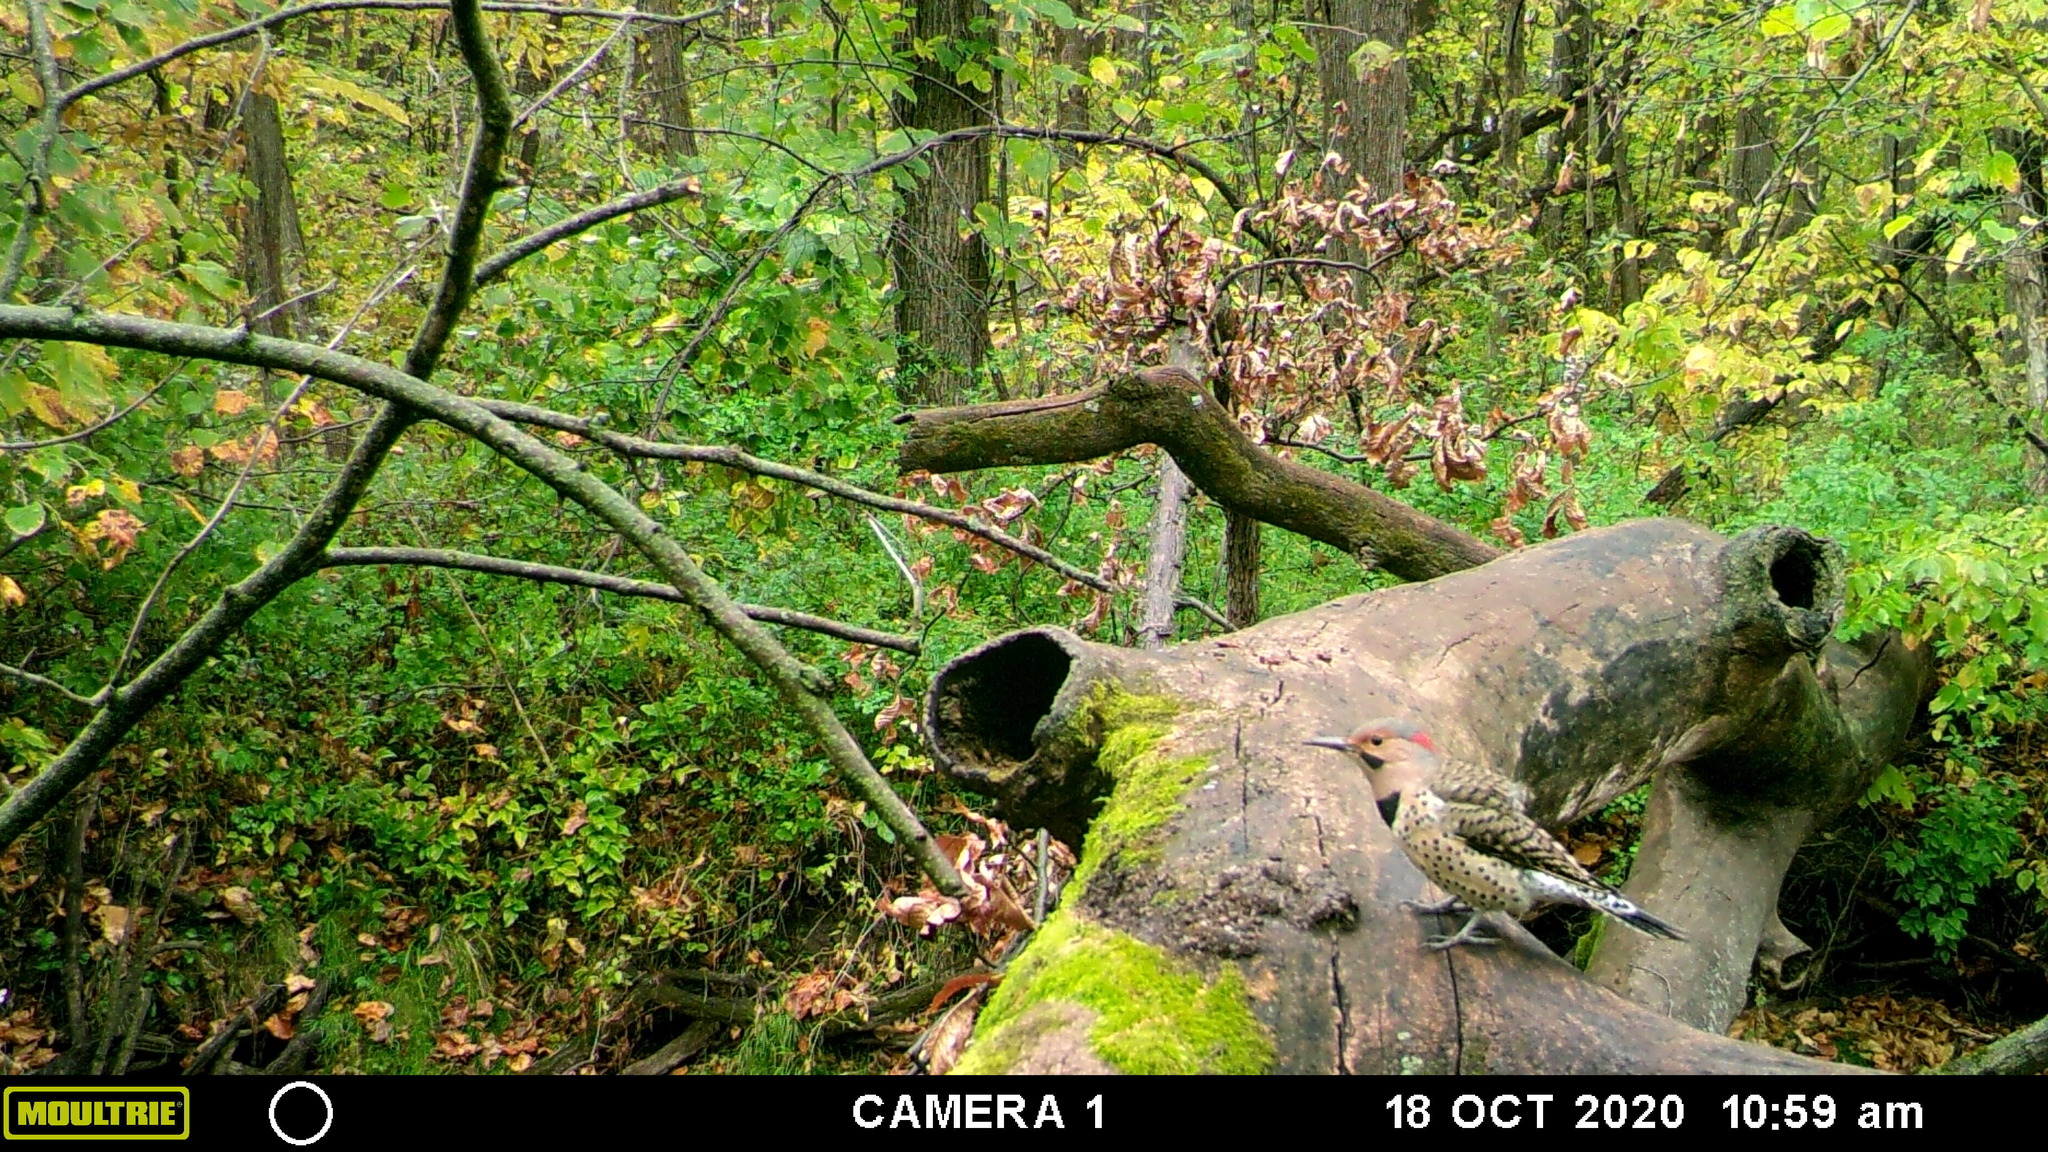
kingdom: Animalia
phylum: Chordata
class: Aves
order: Piciformes
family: Picidae
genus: Colaptes
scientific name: Colaptes auratus
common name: Northern flicker
